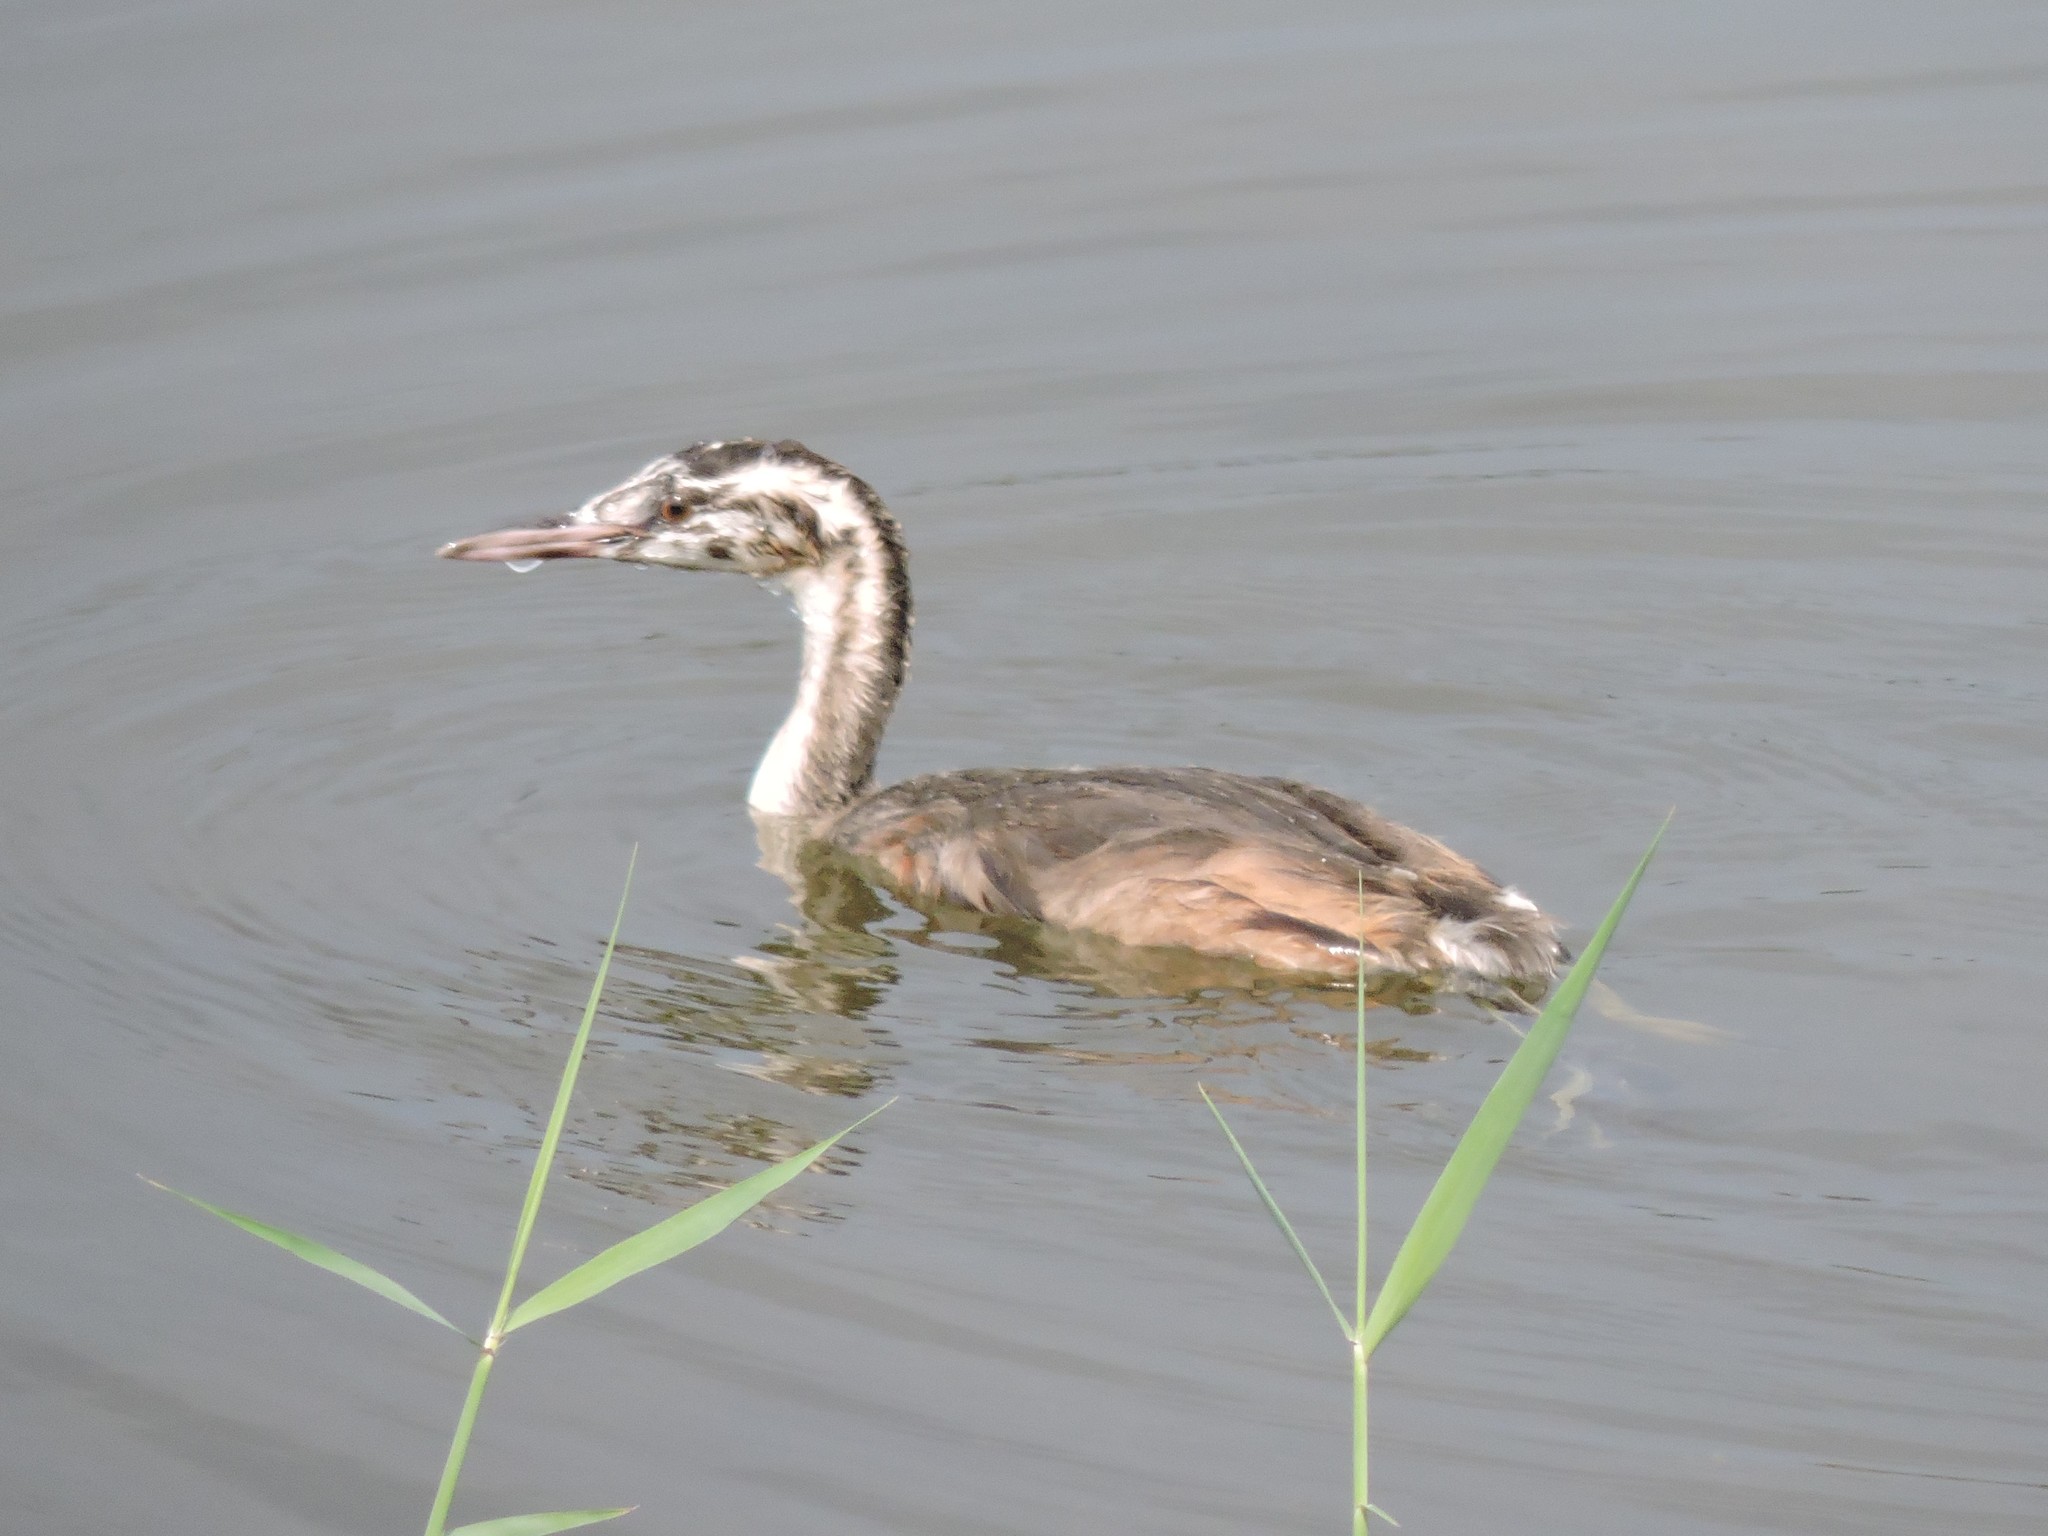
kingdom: Animalia
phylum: Chordata
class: Aves
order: Podicipediformes
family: Podicipedidae
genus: Podiceps
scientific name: Podiceps cristatus
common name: Great crested grebe
